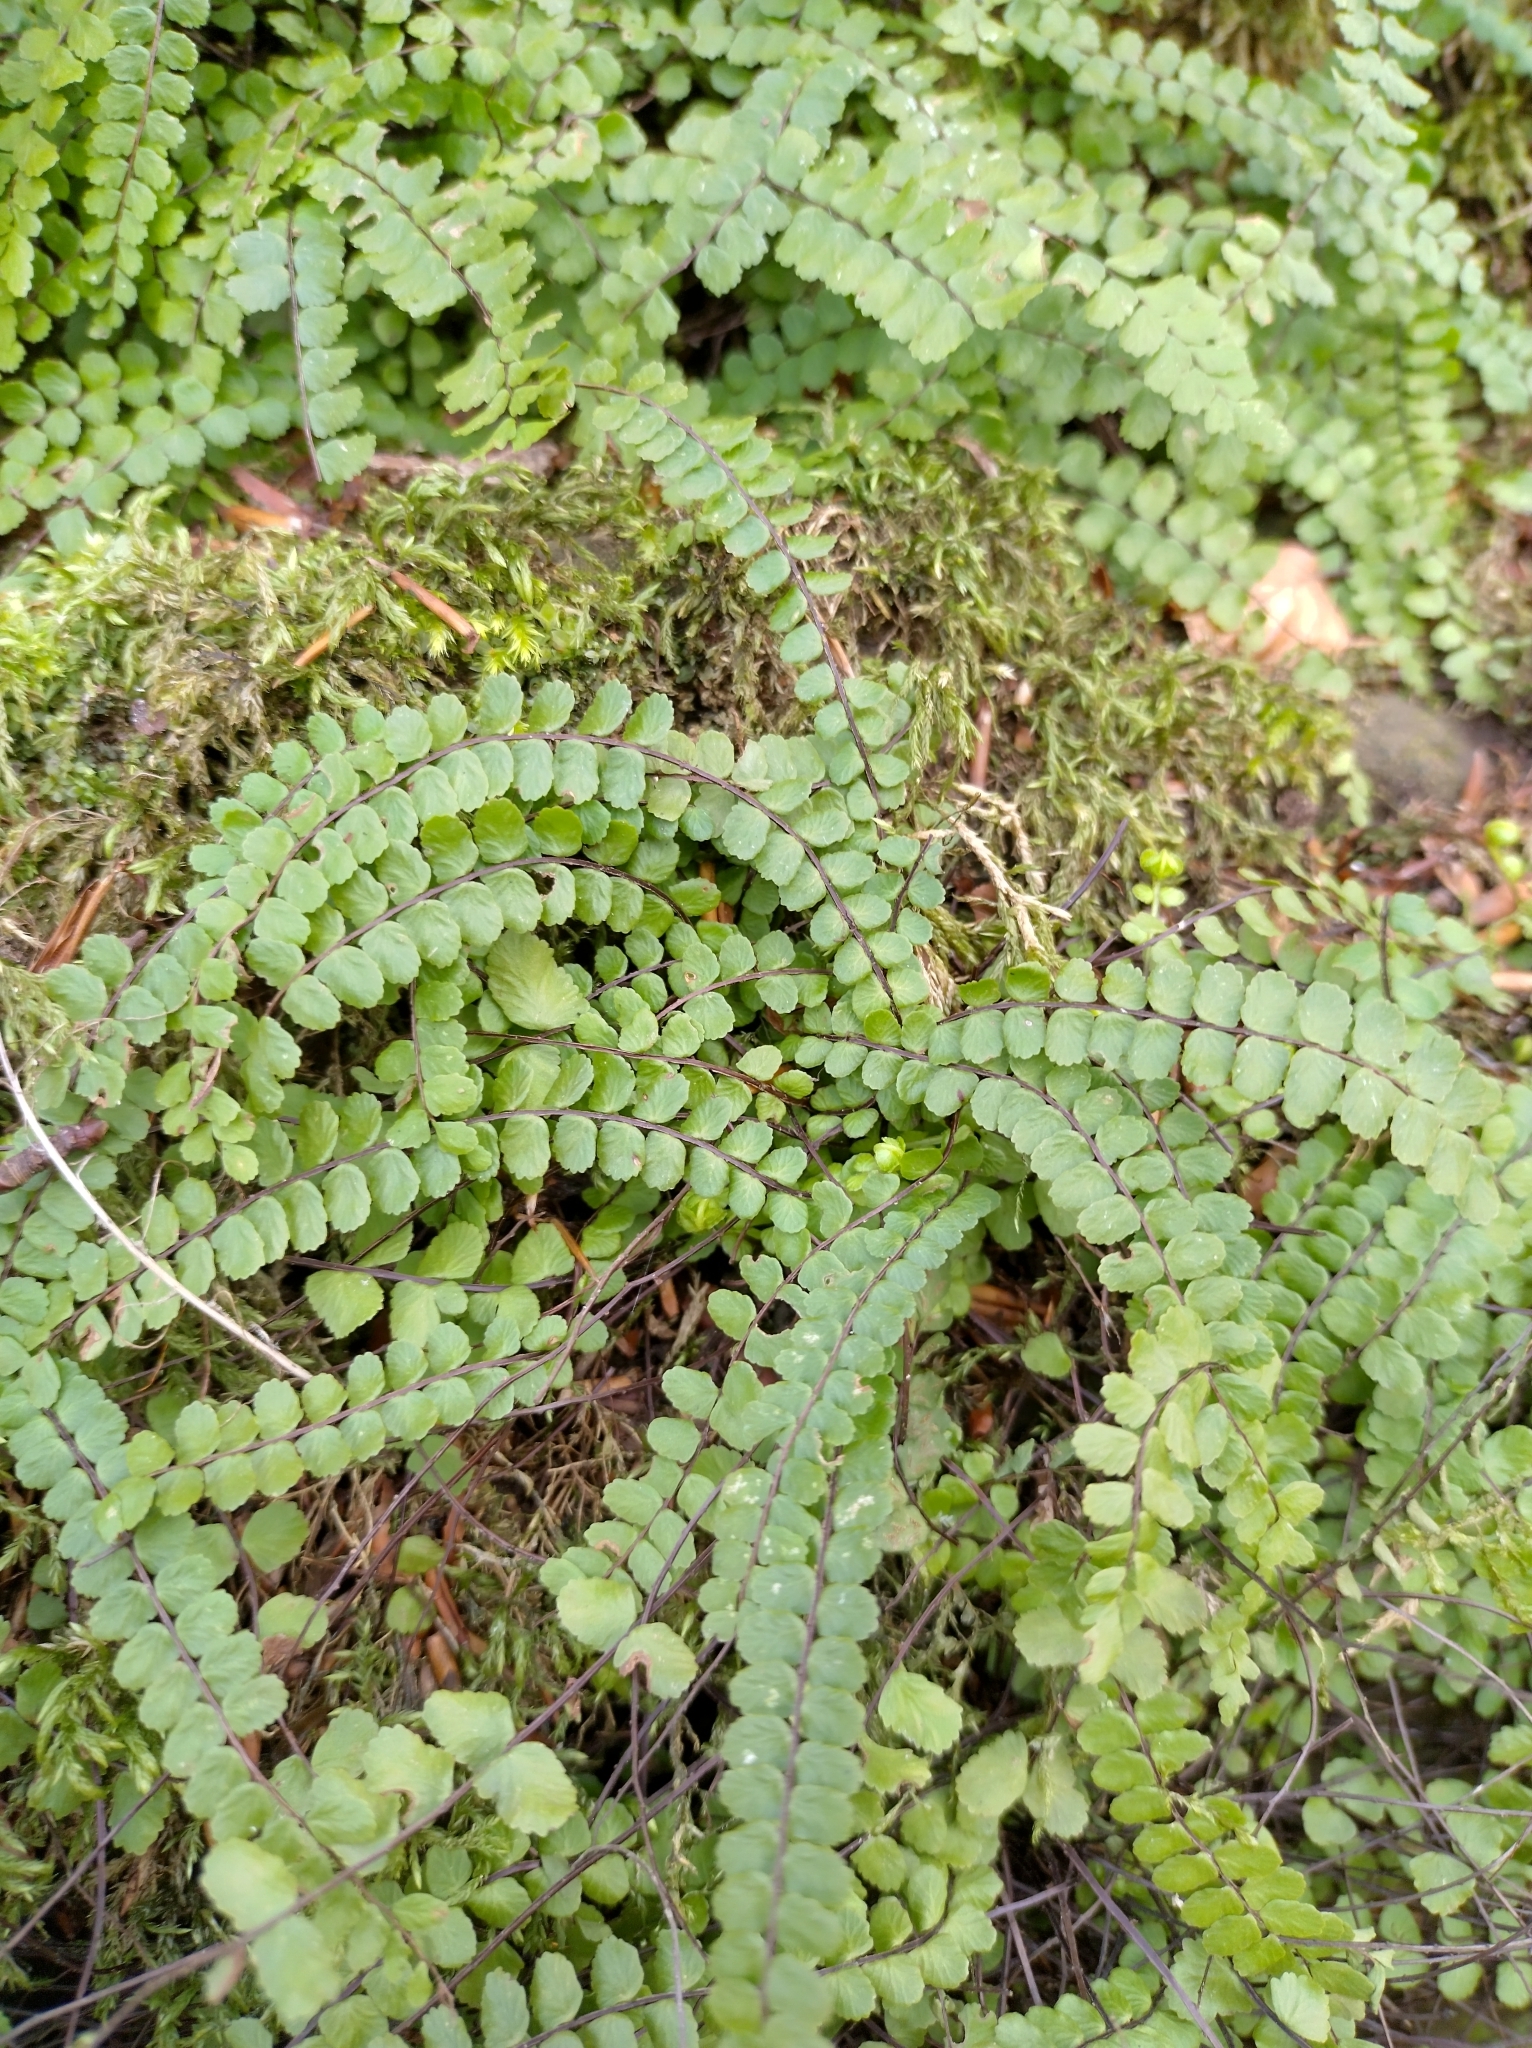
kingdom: Plantae
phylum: Tracheophyta
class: Polypodiopsida
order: Polypodiales
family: Aspleniaceae
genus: Asplenium
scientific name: Asplenium trichomanes
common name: Maidenhair spleenwort
